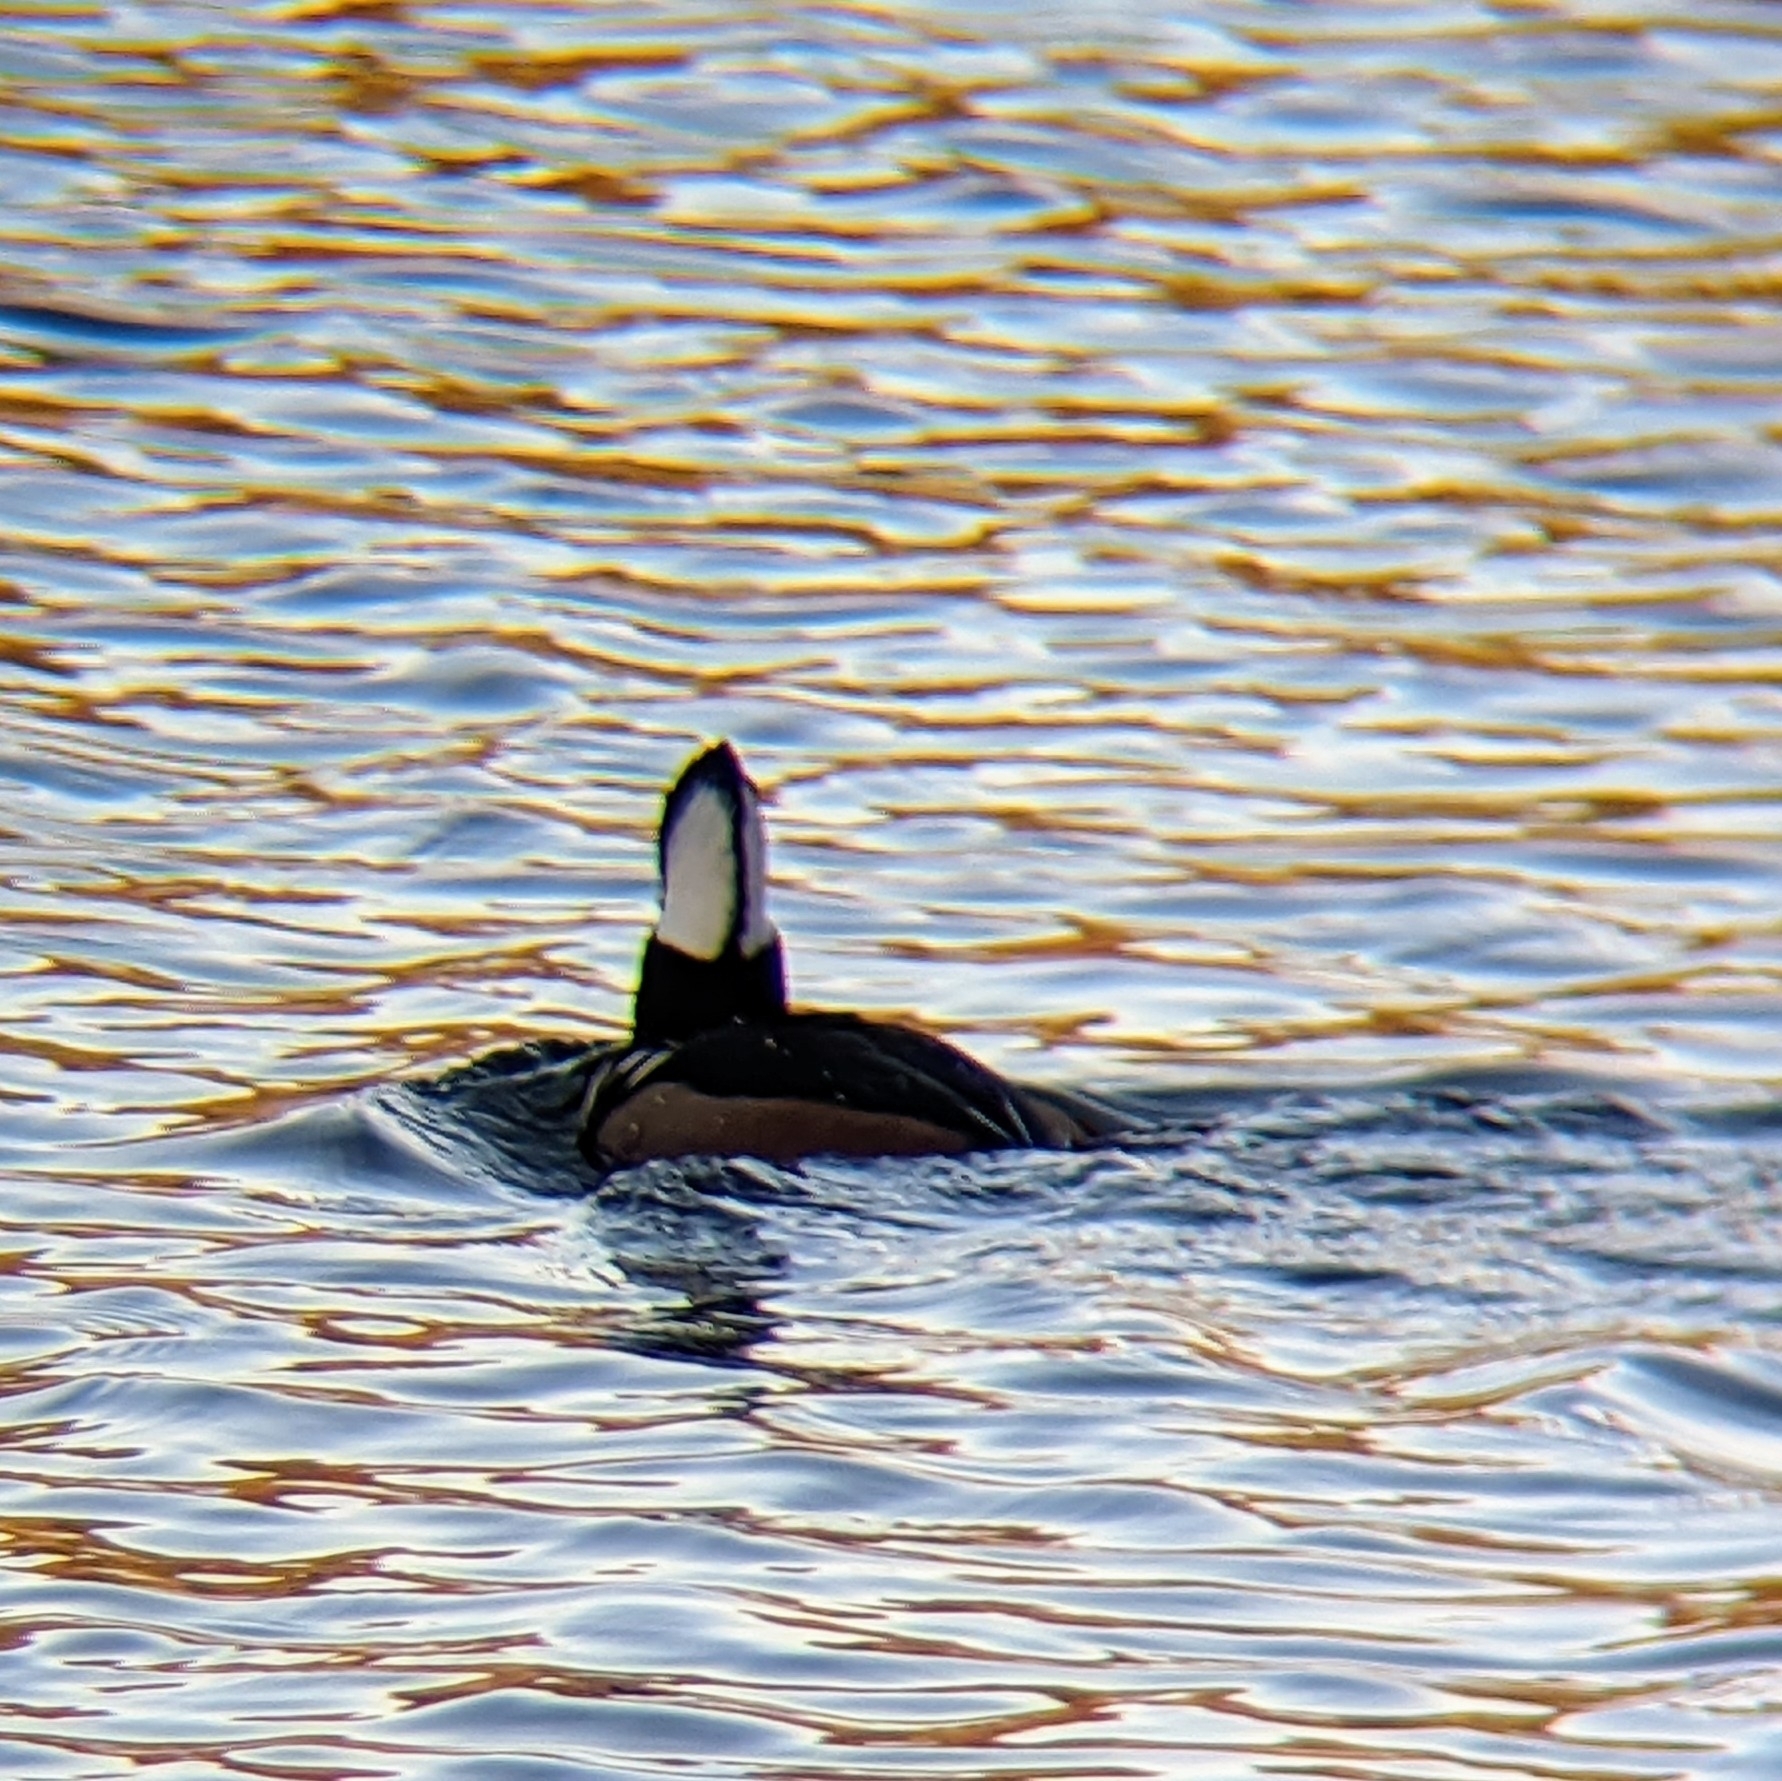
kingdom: Animalia
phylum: Chordata
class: Aves
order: Anseriformes
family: Anatidae
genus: Lophodytes
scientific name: Lophodytes cucullatus
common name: Hooded merganser
